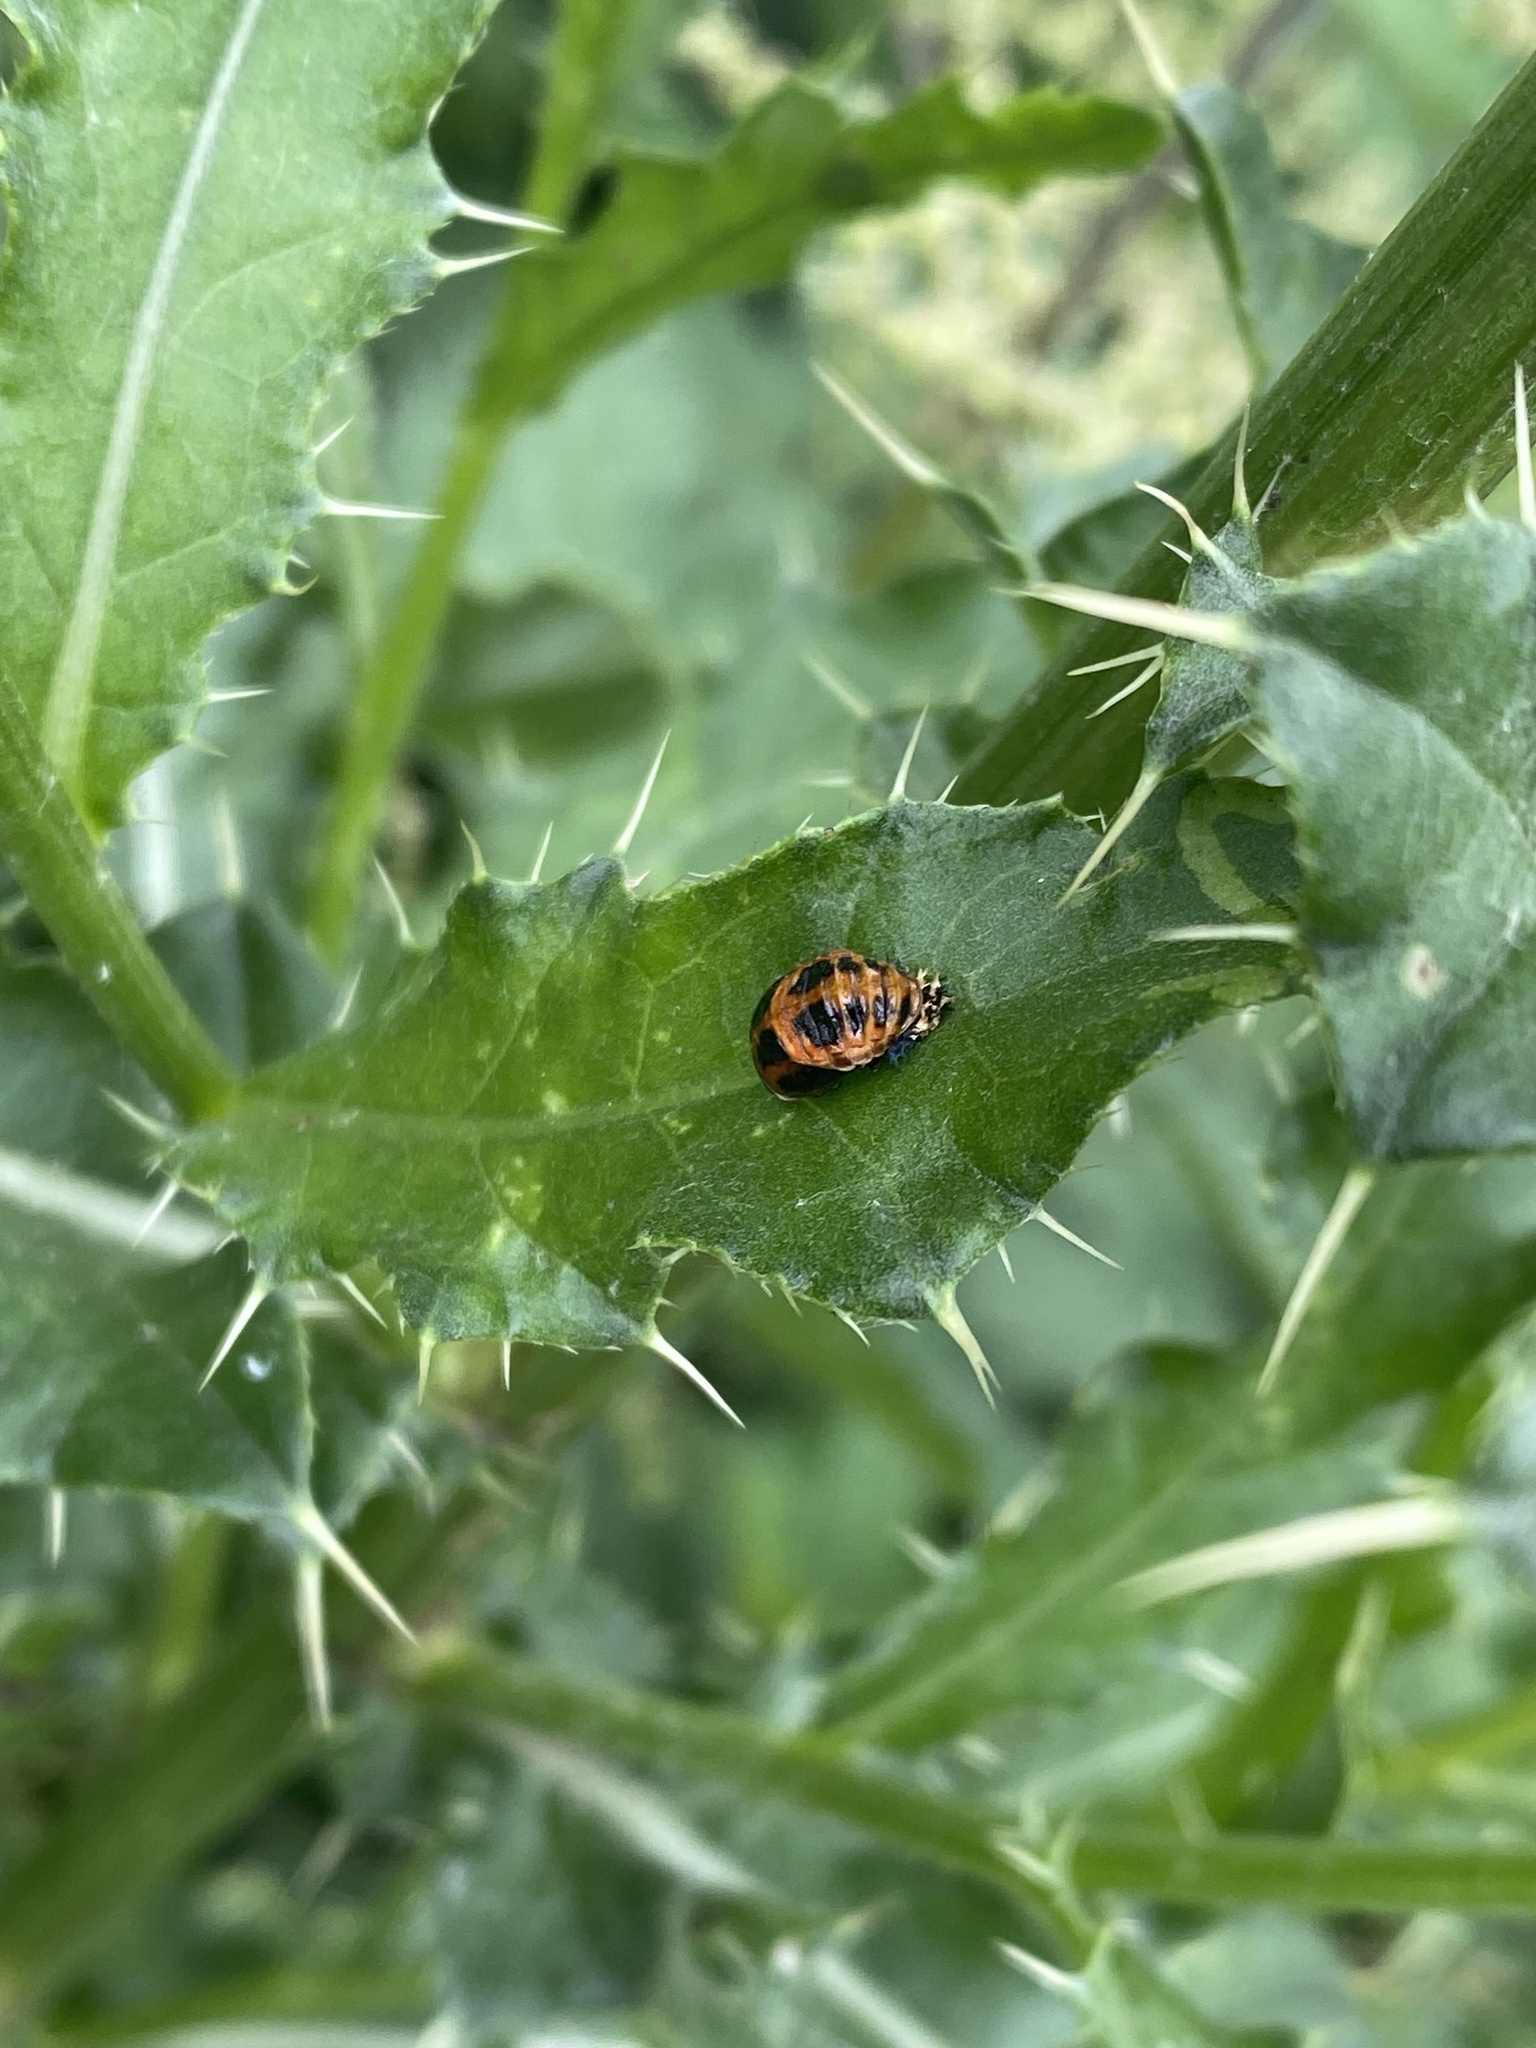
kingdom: Animalia
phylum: Arthropoda
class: Insecta
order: Coleoptera
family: Coccinellidae
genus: Harmonia
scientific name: Harmonia axyridis
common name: Harlequin ladybird
